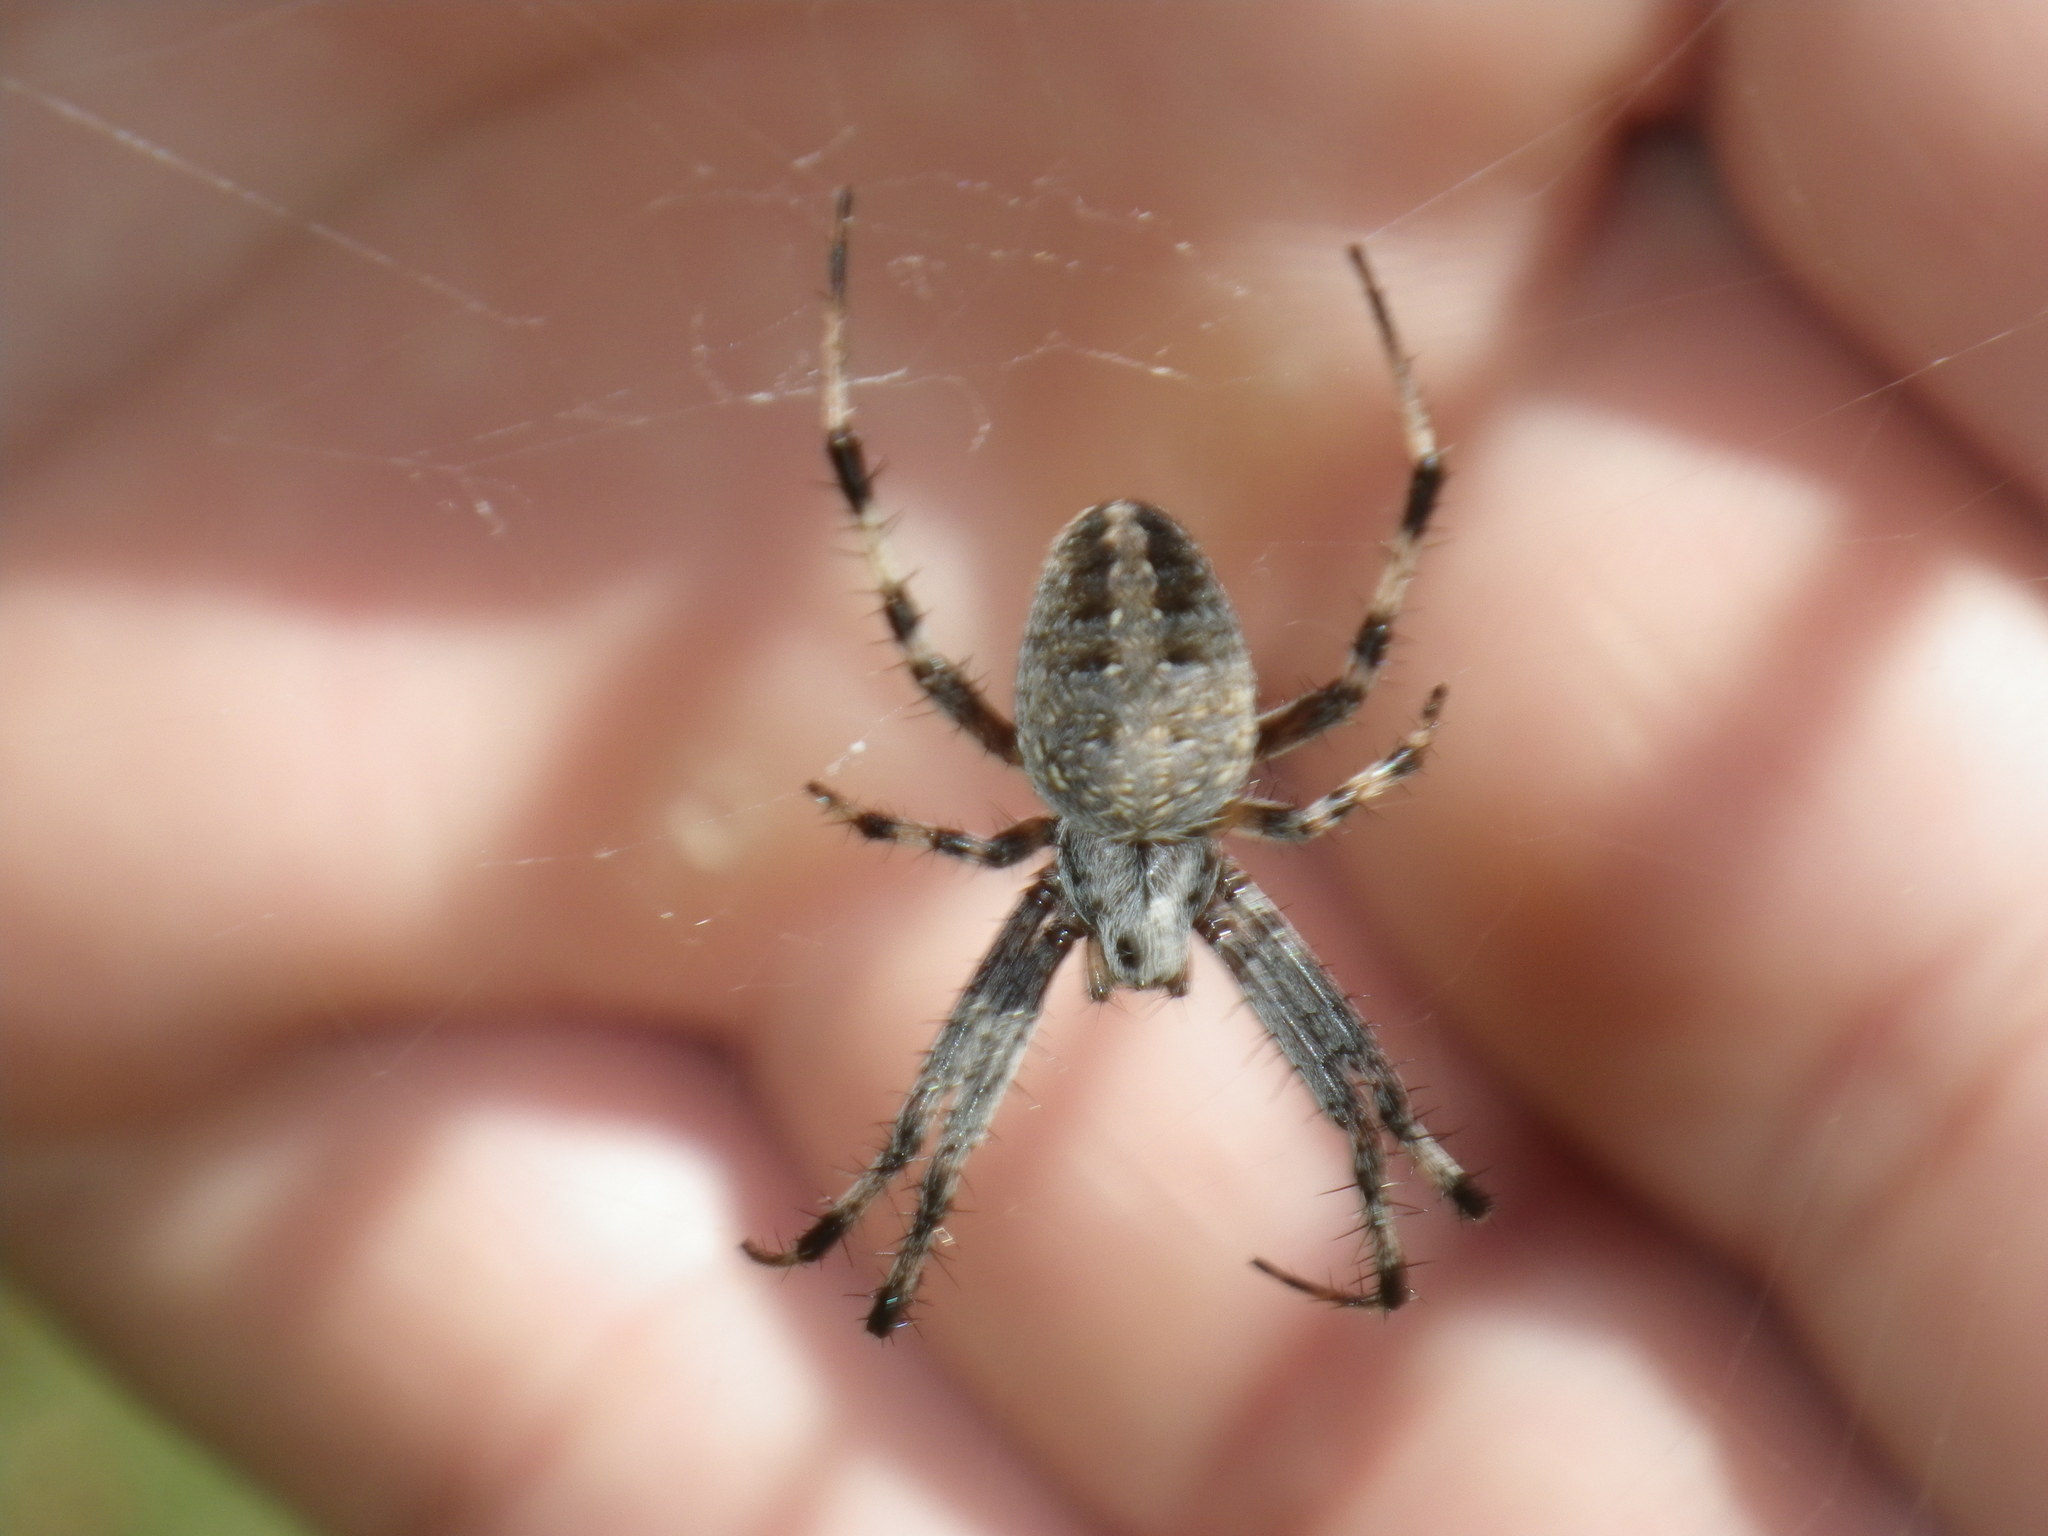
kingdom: Animalia
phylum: Arthropoda
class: Arachnida
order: Araneae
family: Araneidae
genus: Neoscona
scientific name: Neoscona oaxacensis
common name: Orb weavers
